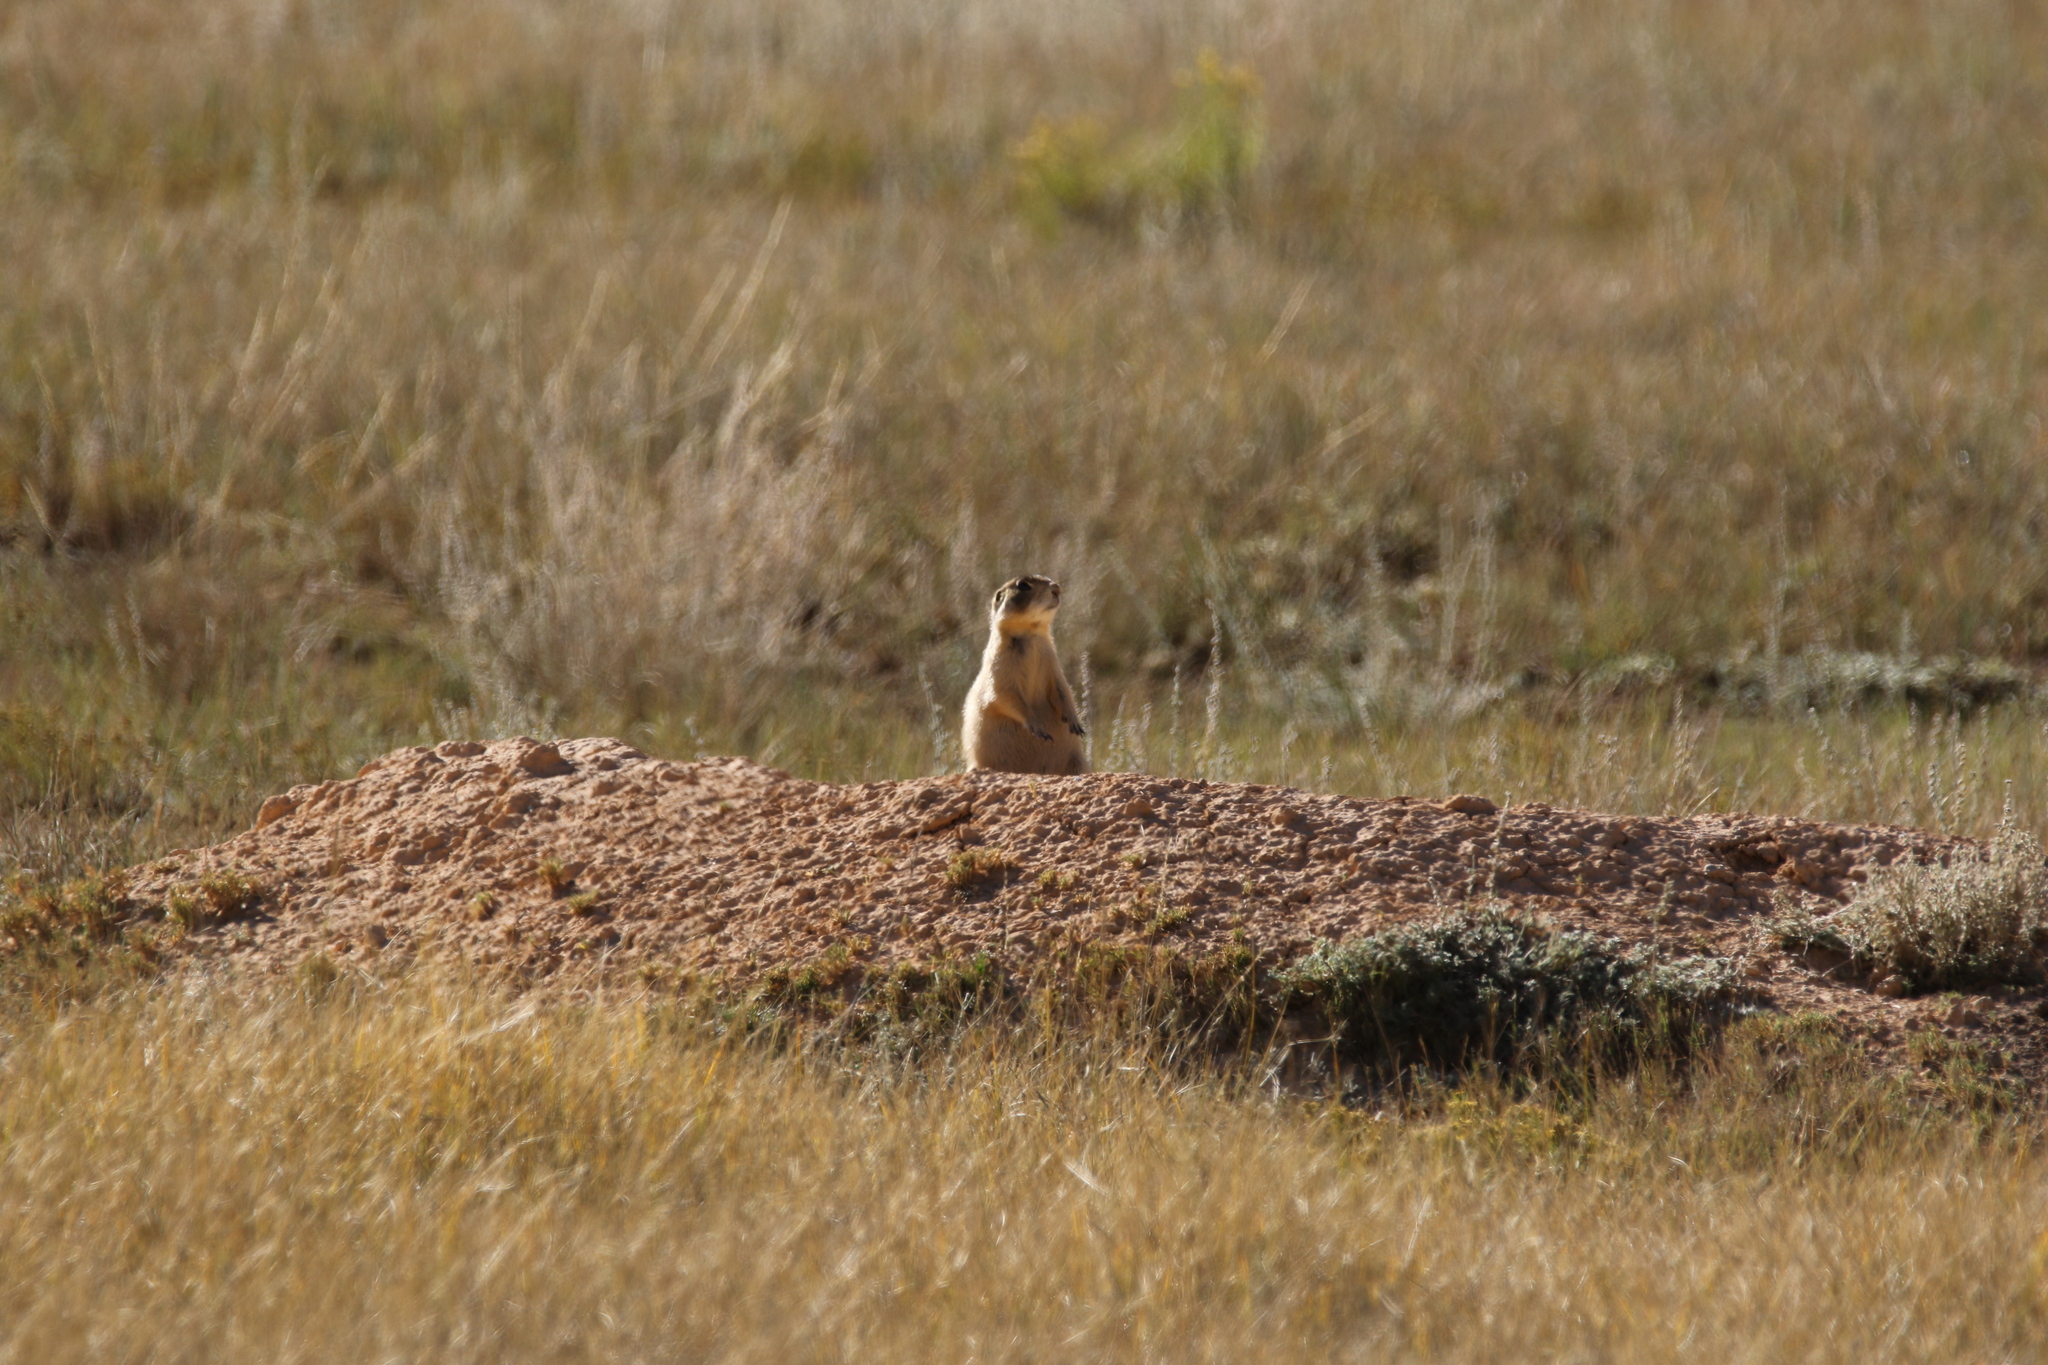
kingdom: Animalia
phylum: Chordata
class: Mammalia
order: Rodentia
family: Sciuridae
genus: Cynomys
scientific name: Cynomys parvidens
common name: Utah prairie dog
